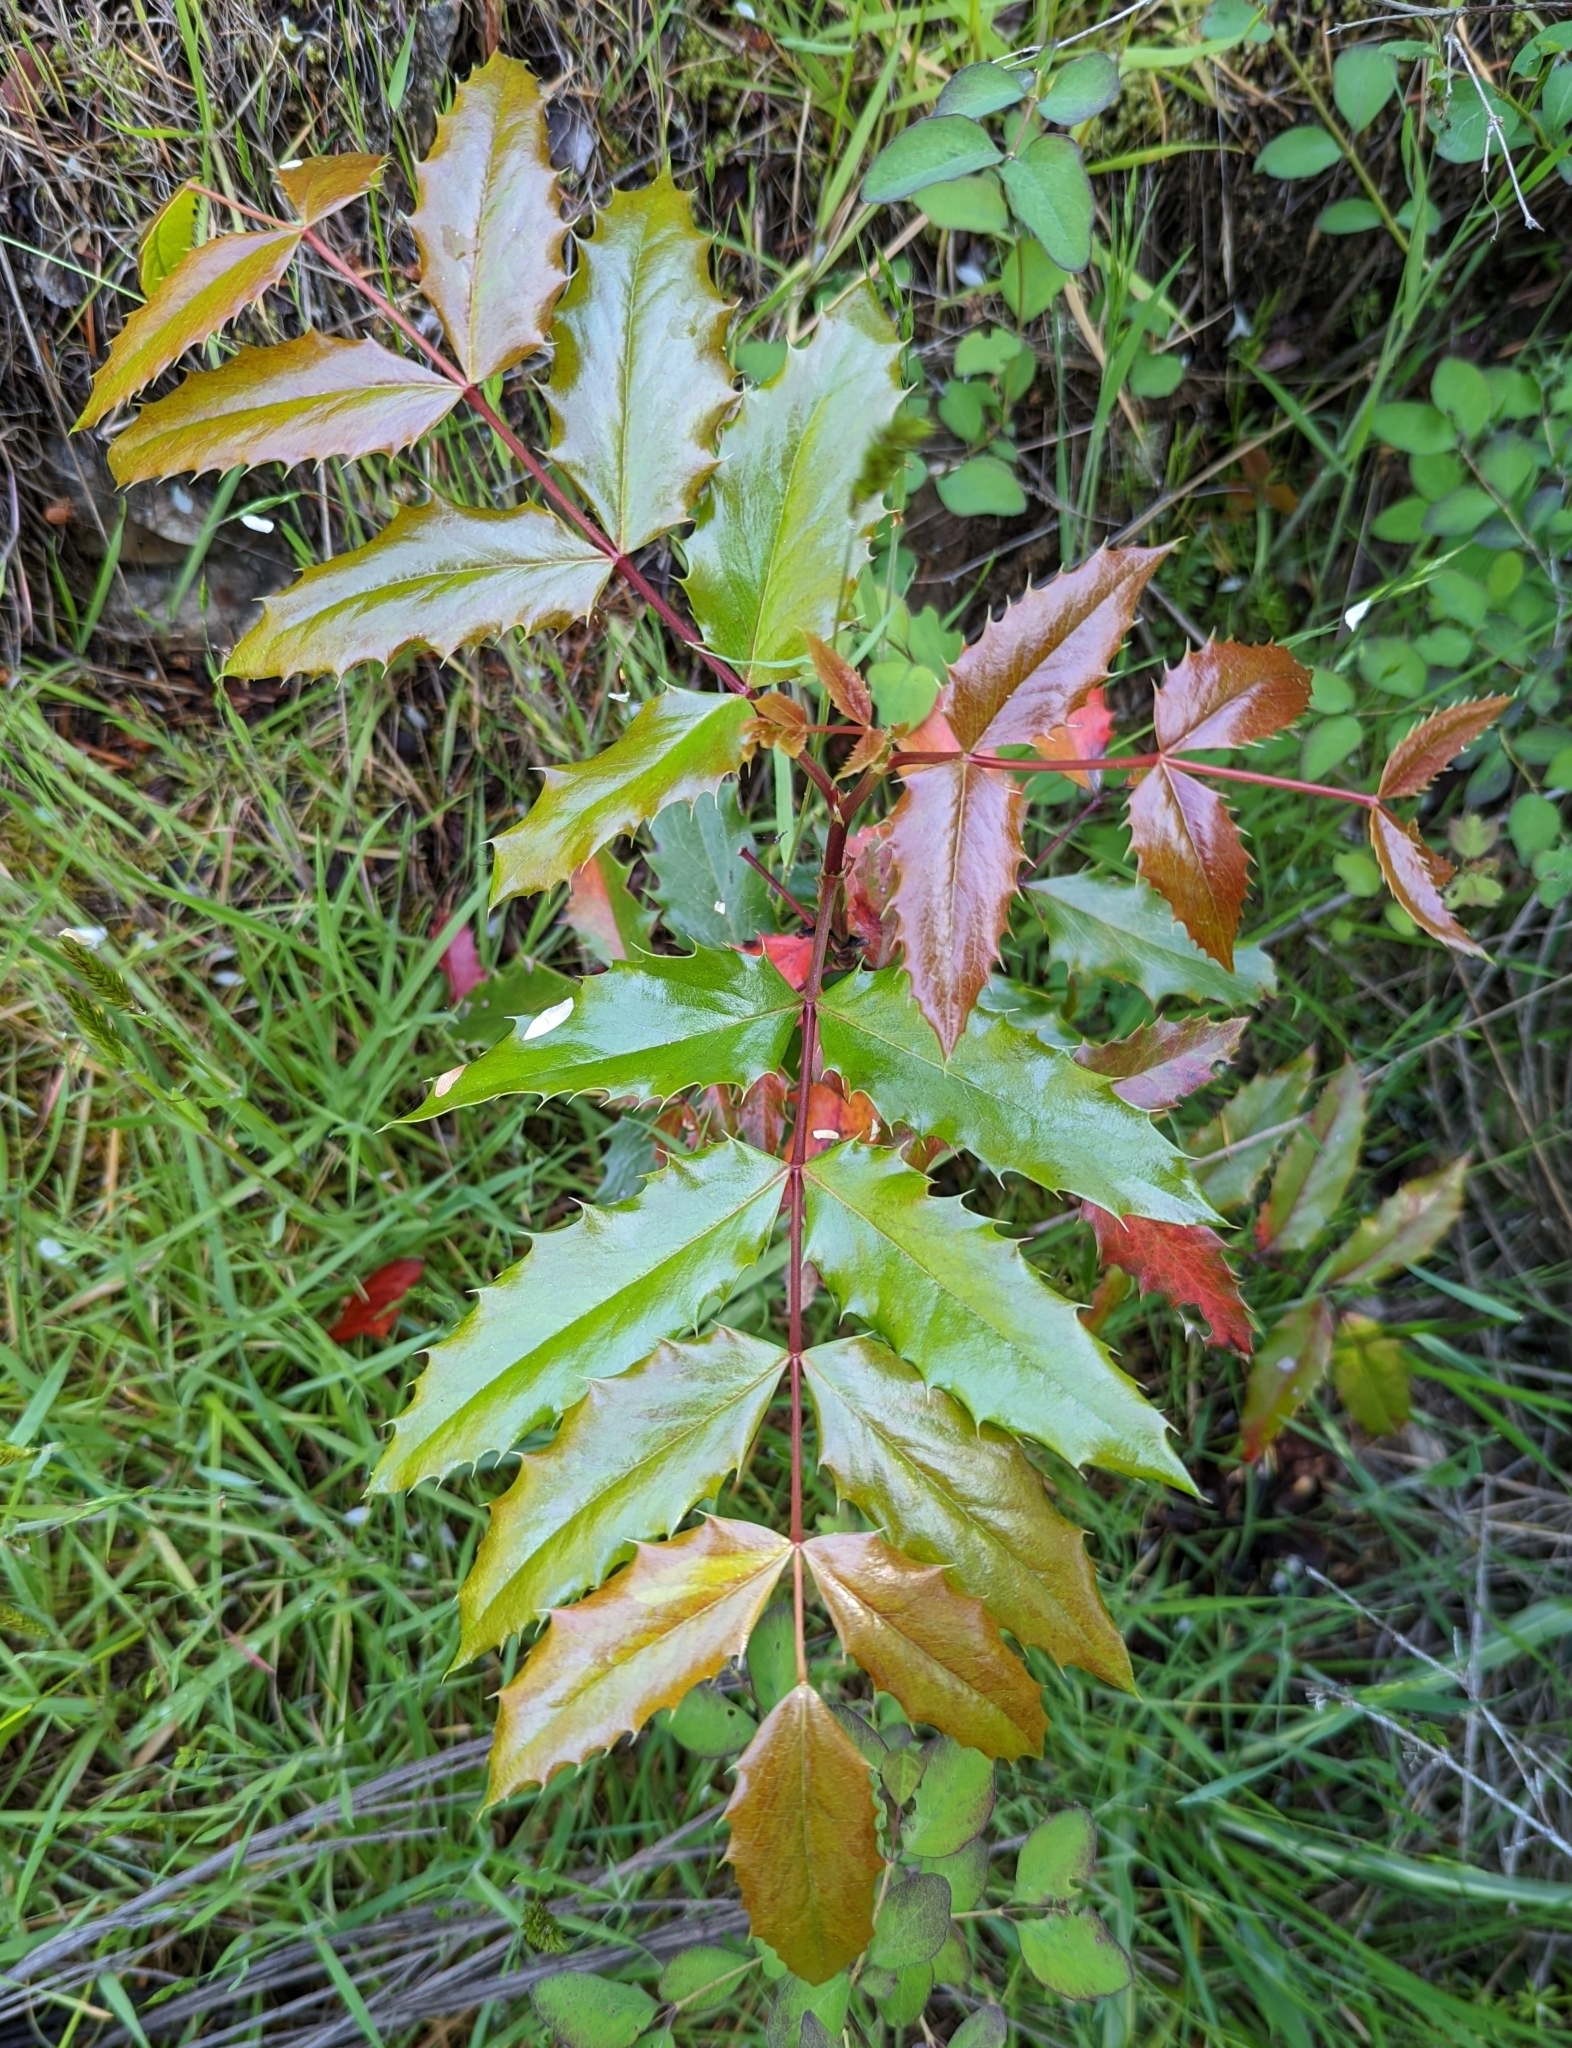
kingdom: Plantae
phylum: Tracheophyta
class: Magnoliopsida
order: Ranunculales
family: Berberidaceae
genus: Mahonia
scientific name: Mahonia aquifolium
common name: Oregon-grape
